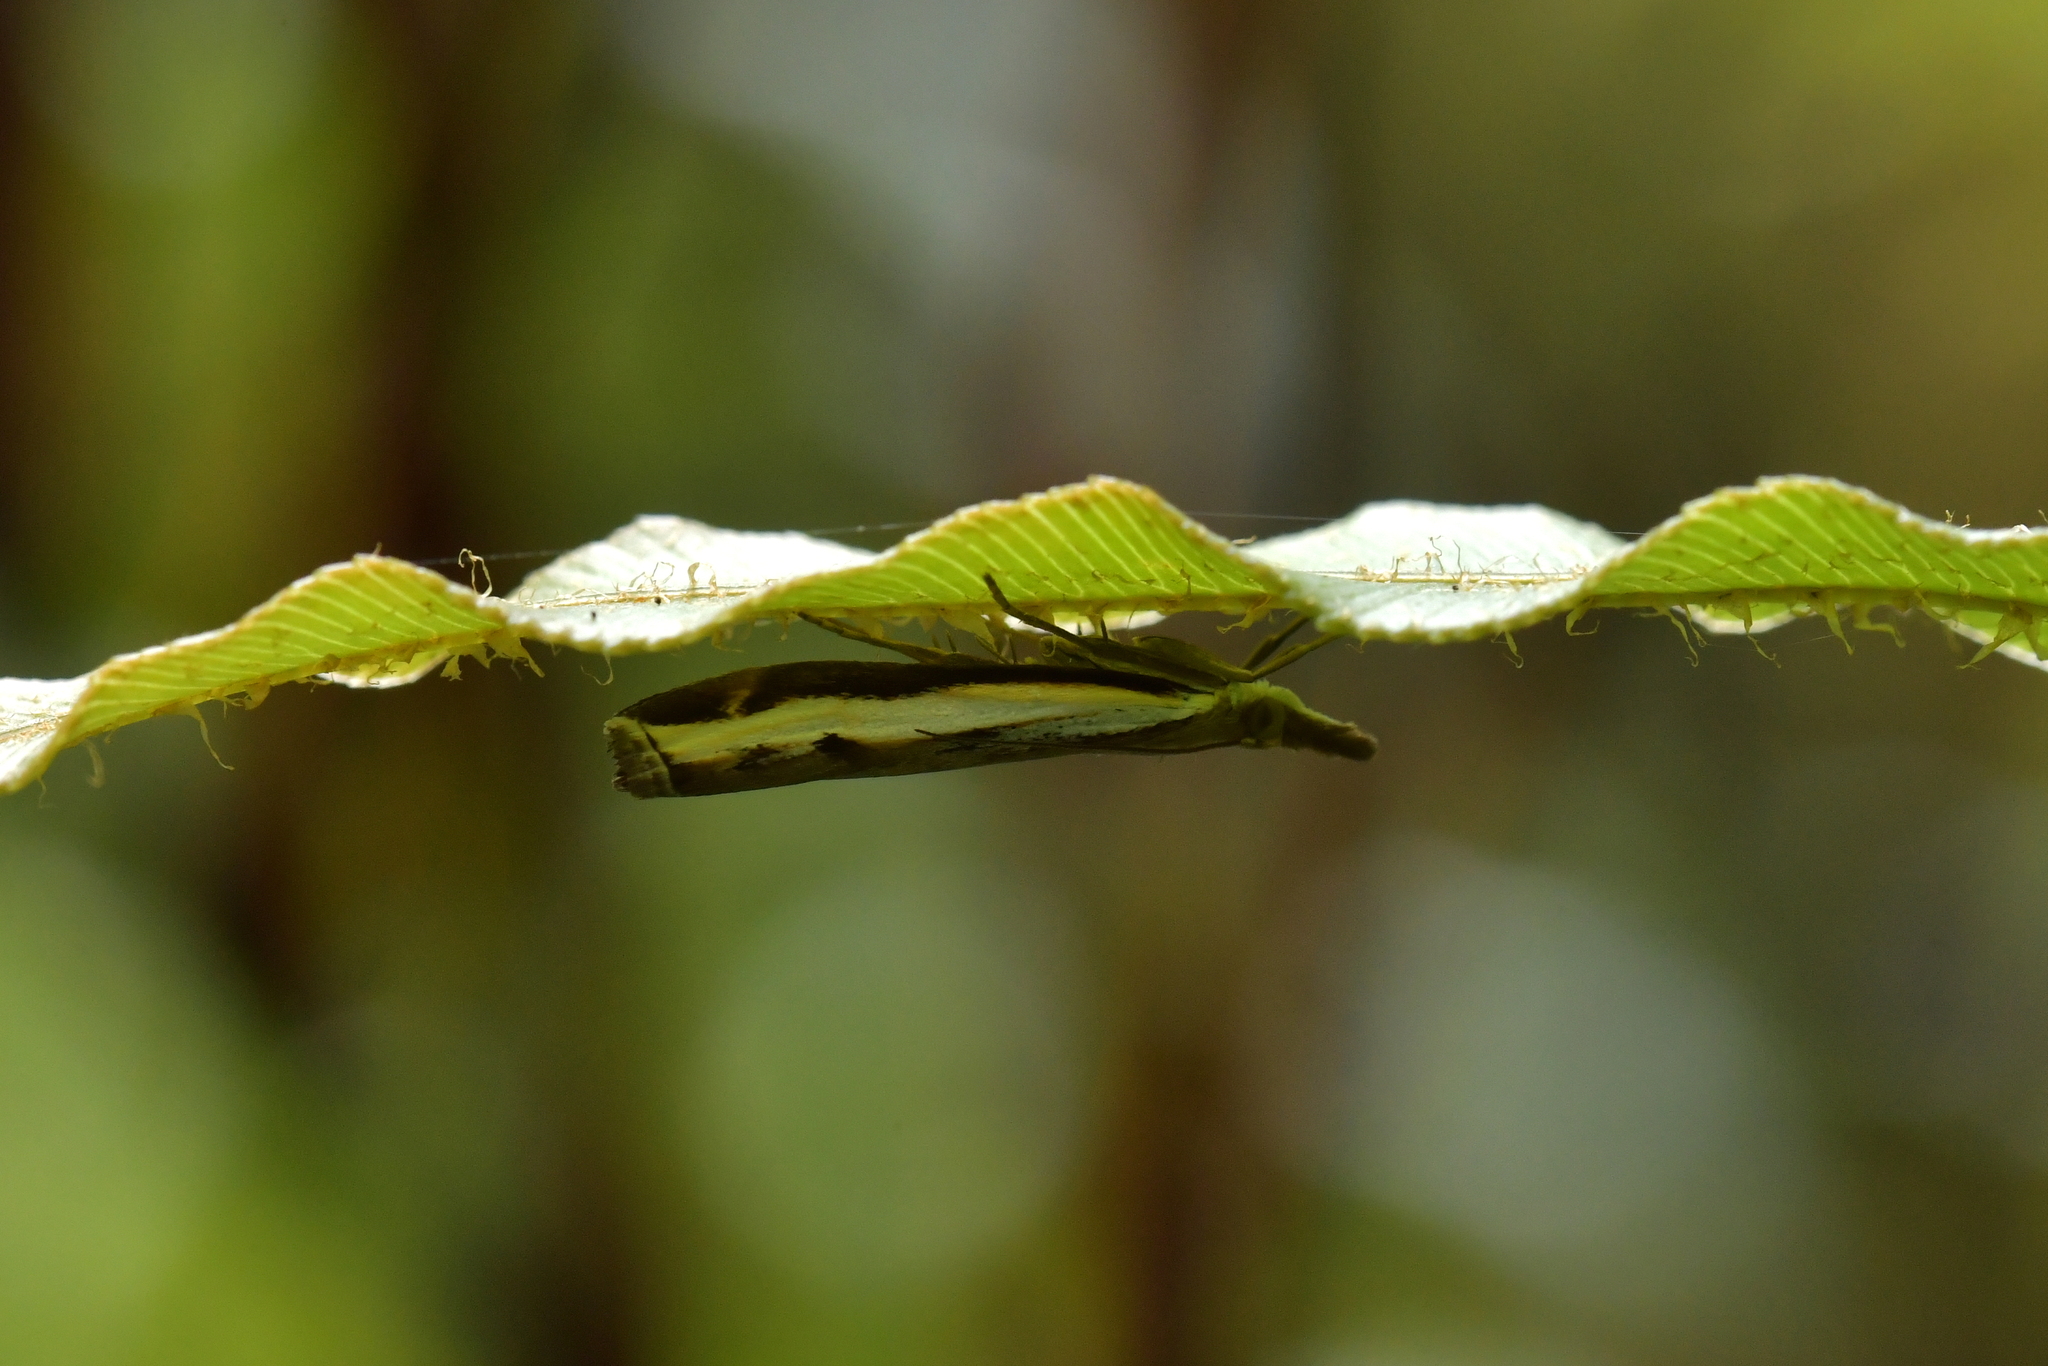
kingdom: Animalia
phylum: Arthropoda
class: Insecta
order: Lepidoptera
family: Crambidae
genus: Orocrambus
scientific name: Orocrambus flexuosellus
